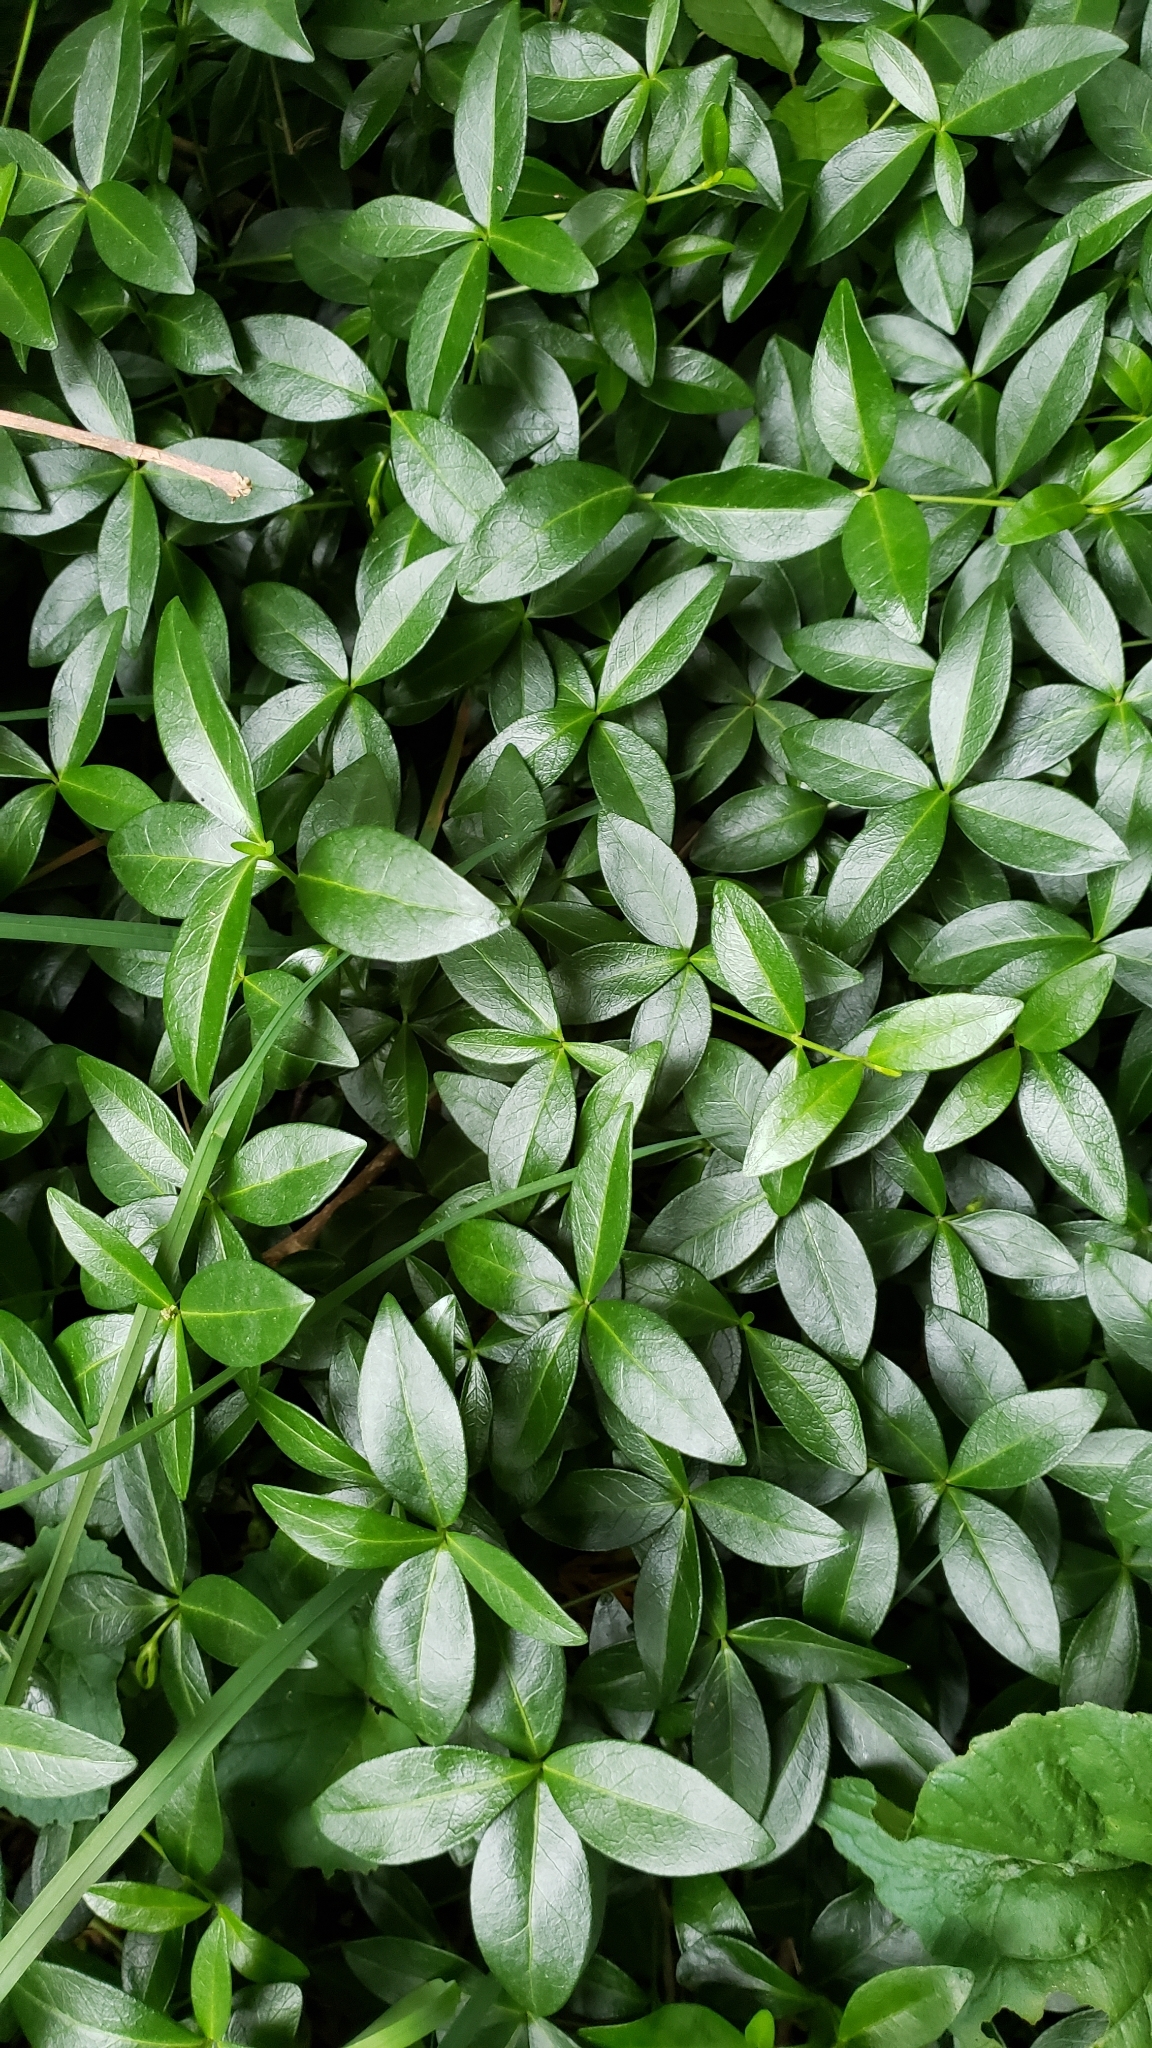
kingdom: Plantae
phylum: Tracheophyta
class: Magnoliopsida
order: Gentianales
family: Apocynaceae
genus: Vinca
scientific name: Vinca minor
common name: Lesser periwinkle
